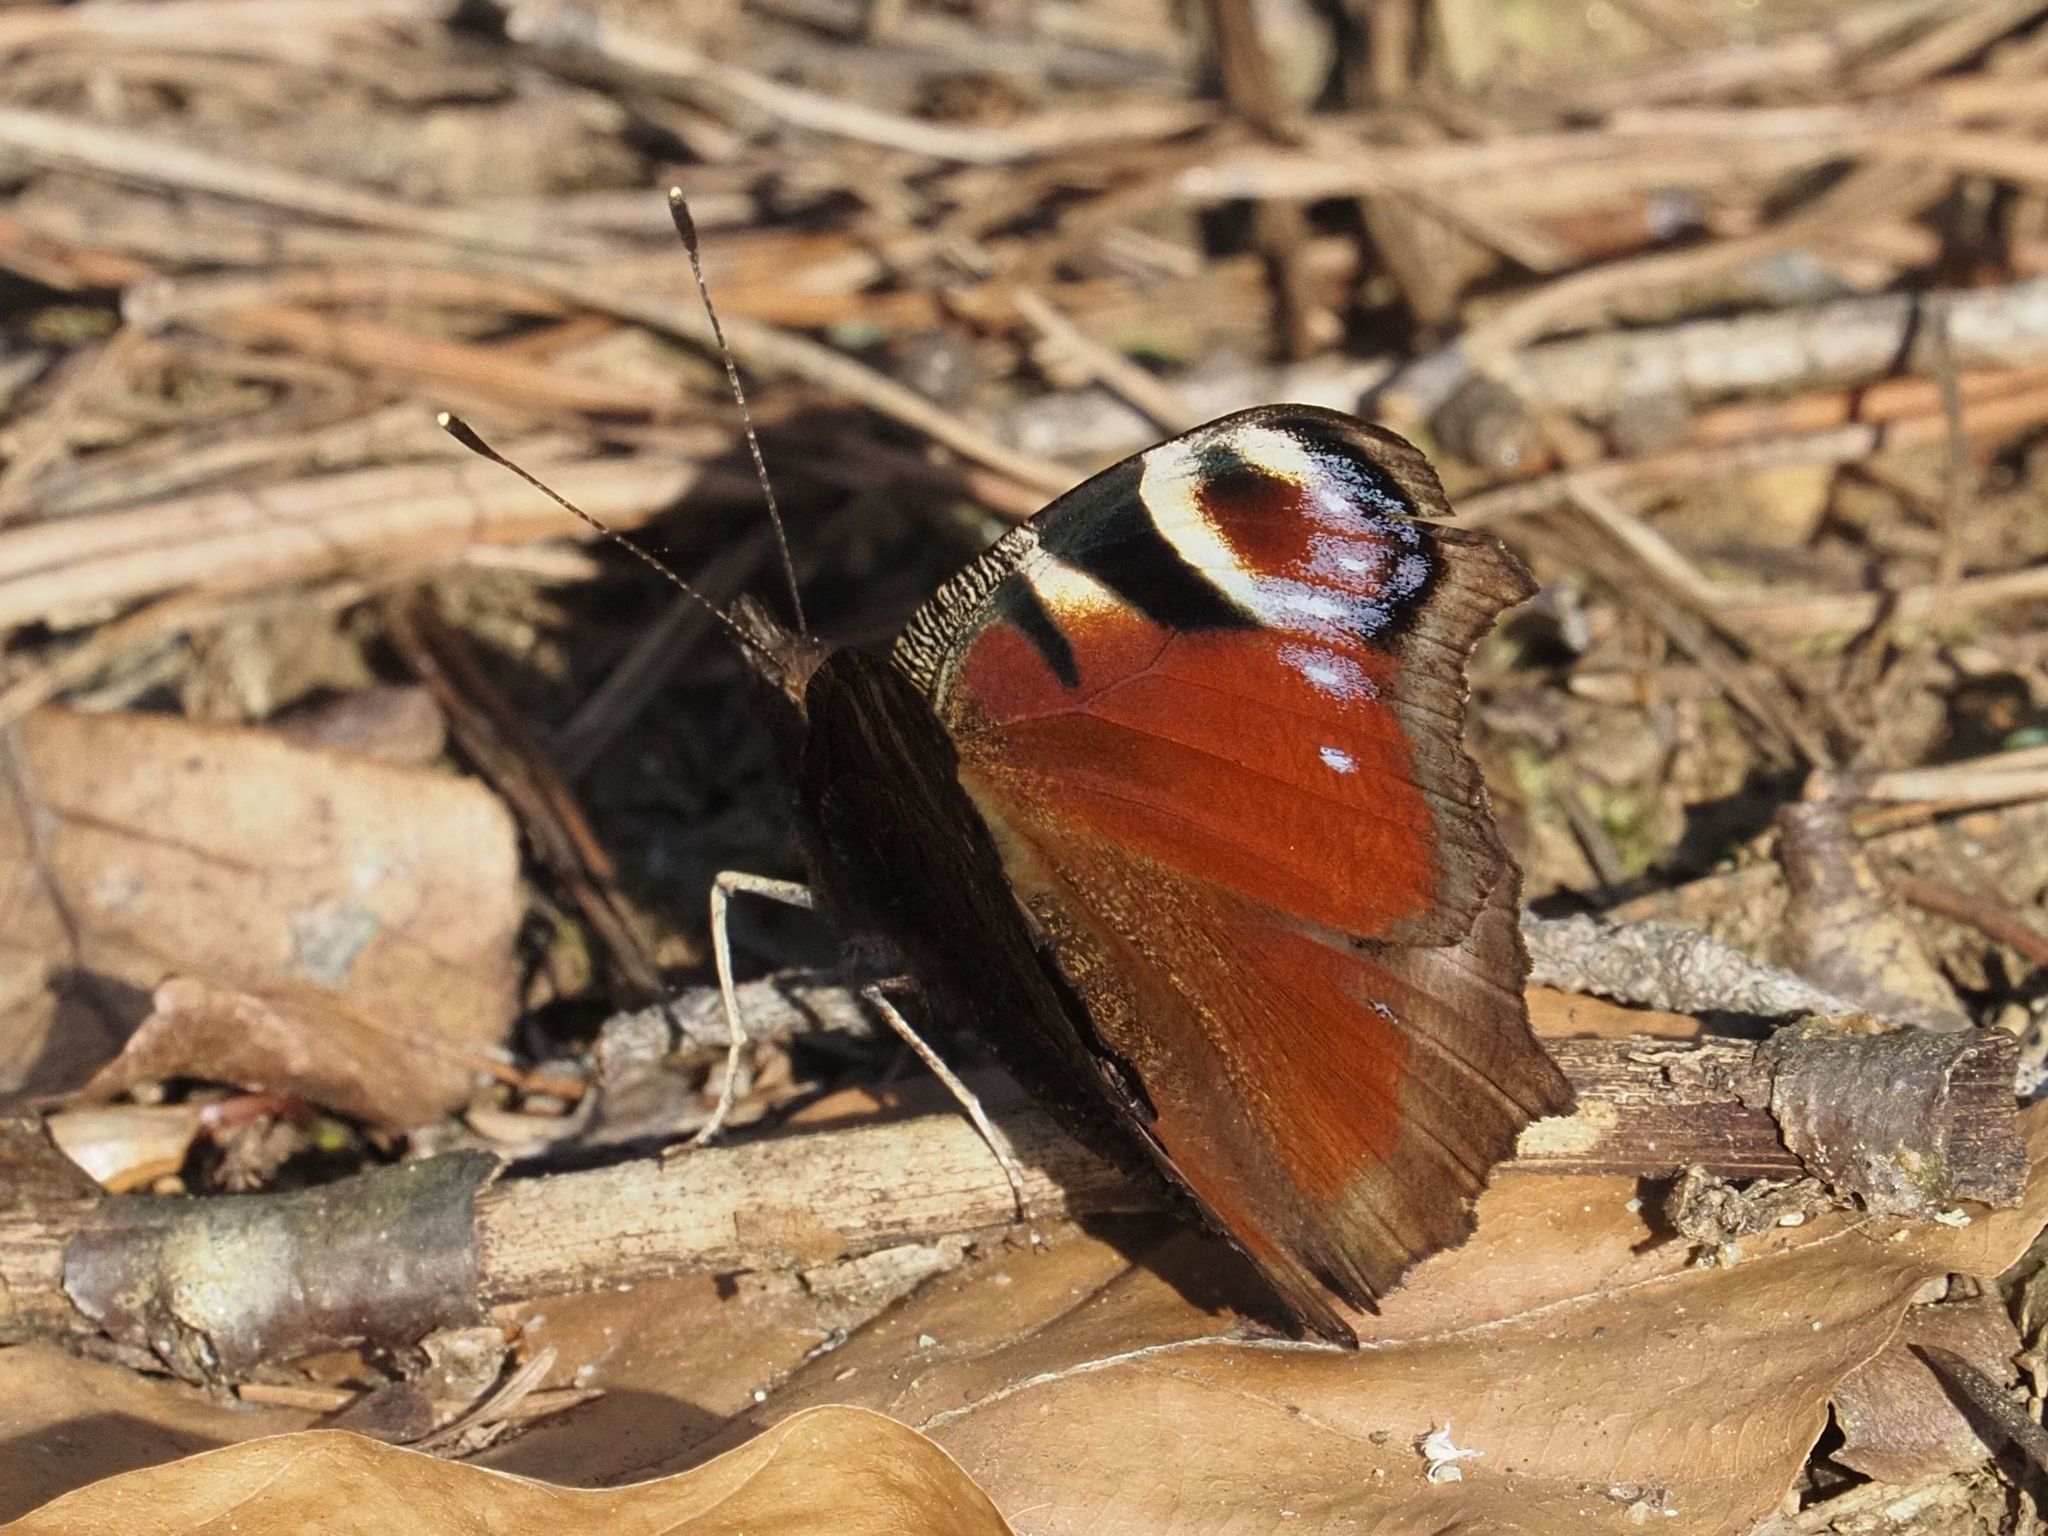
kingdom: Animalia
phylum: Arthropoda
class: Insecta
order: Lepidoptera
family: Nymphalidae
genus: Aglais
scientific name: Aglais io
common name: Peacock
